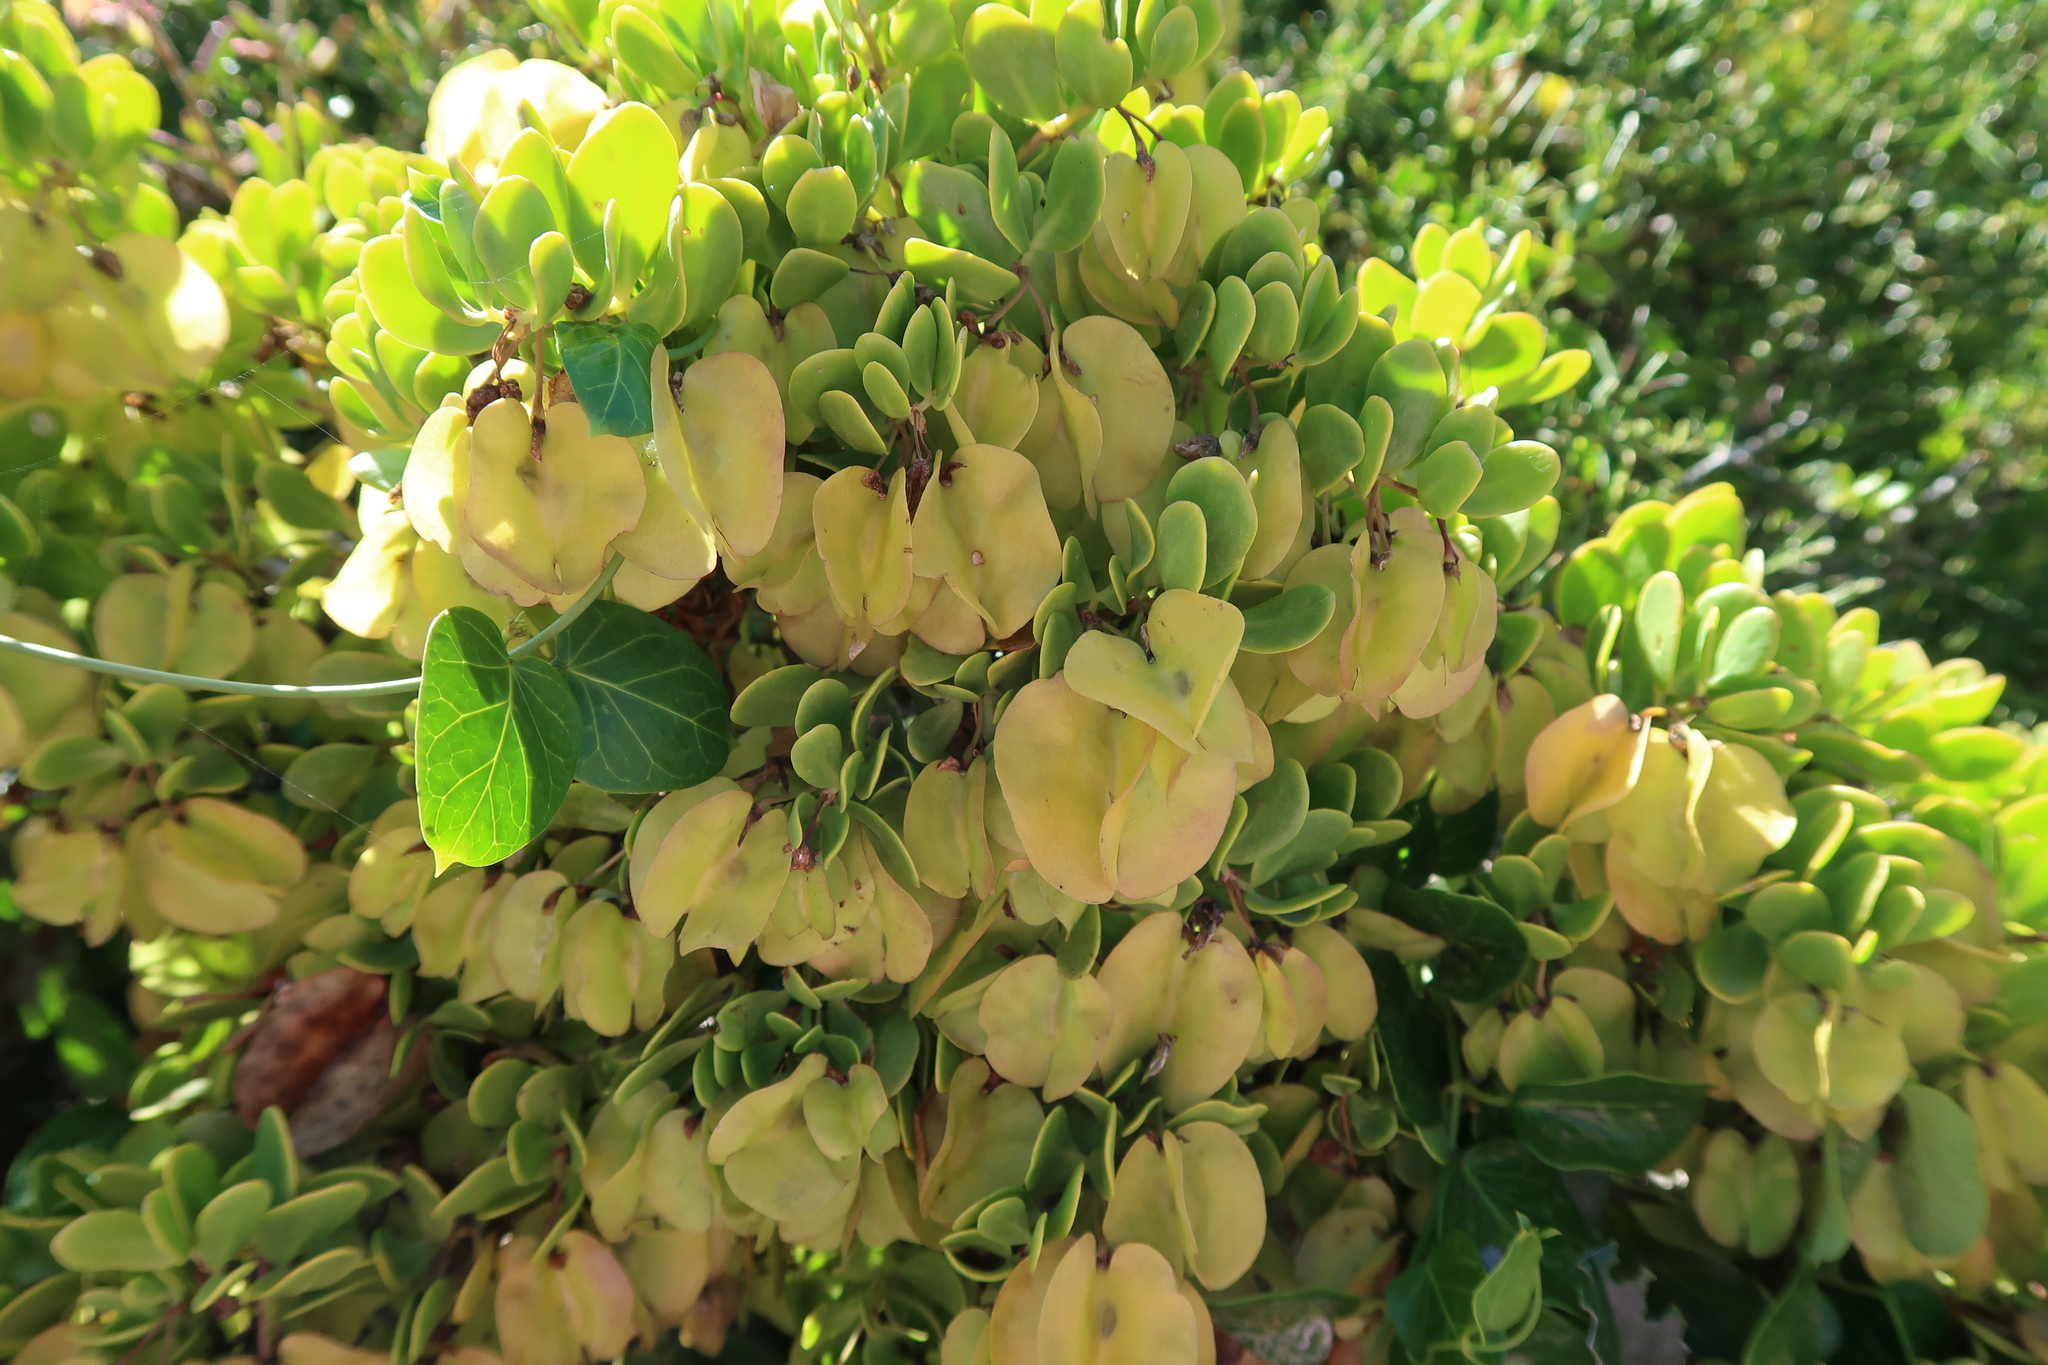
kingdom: Plantae
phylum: Tracheophyta
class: Magnoliopsida
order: Zygophyllales
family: Zygophyllaceae
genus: Roepera
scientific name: Roepera morgsana
